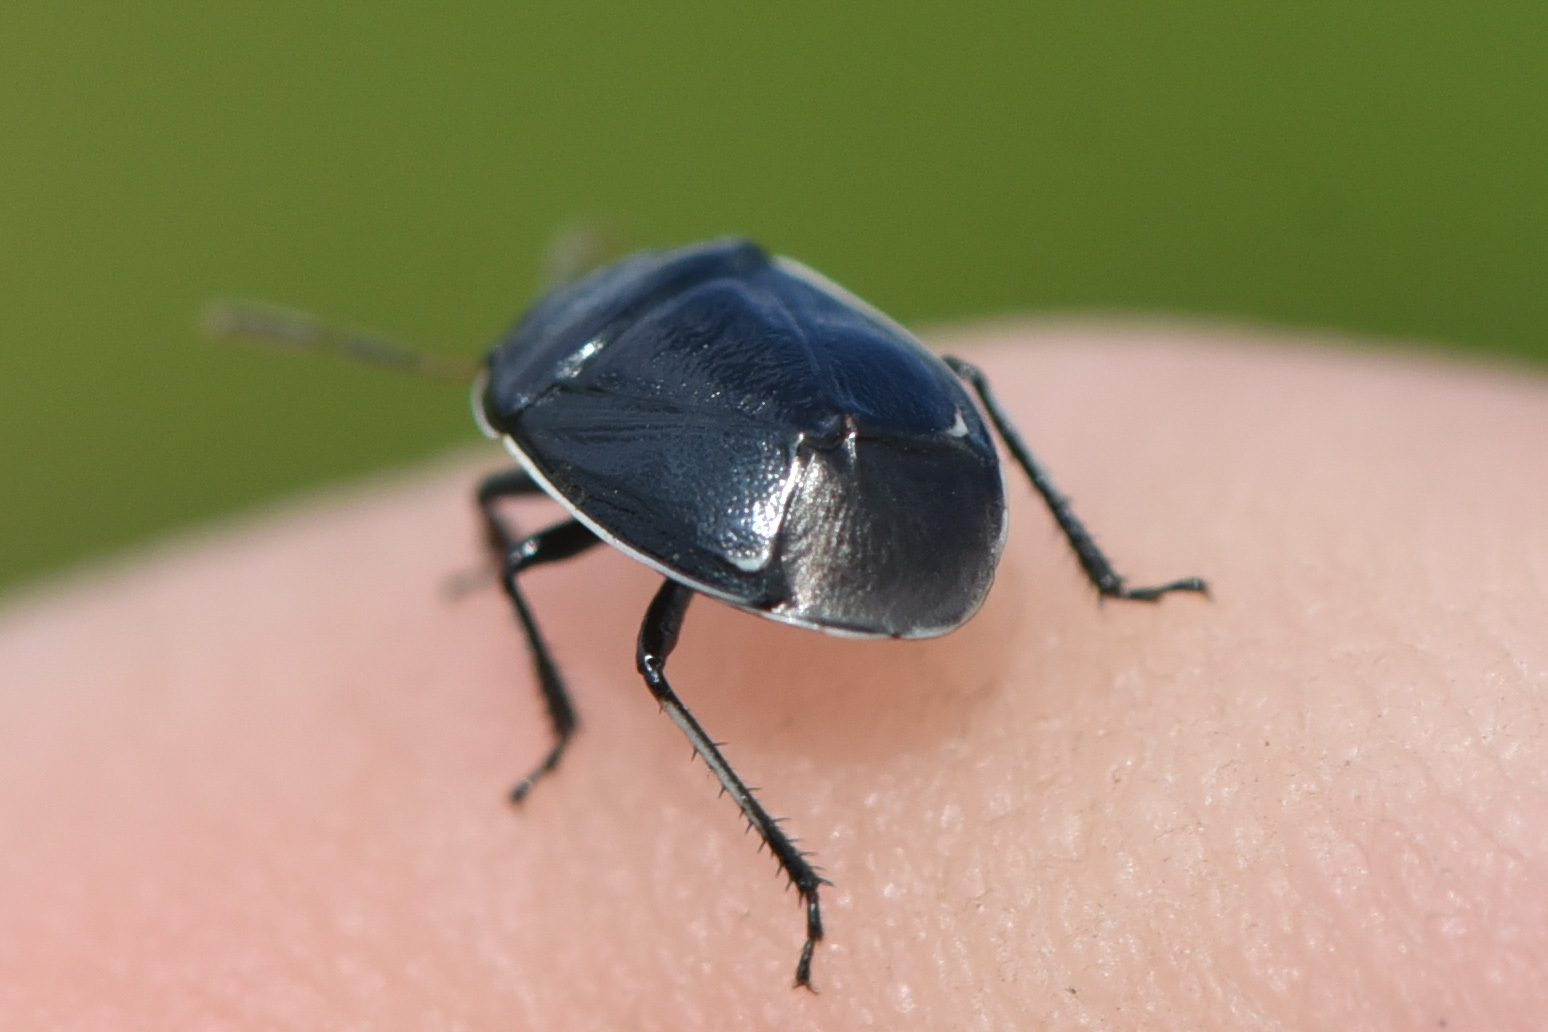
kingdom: Animalia
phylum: Arthropoda
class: Insecta
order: Hemiptera
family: Cydnidae
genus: Sehirus
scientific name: Sehirus cinctus
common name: White-margined burrower bug
